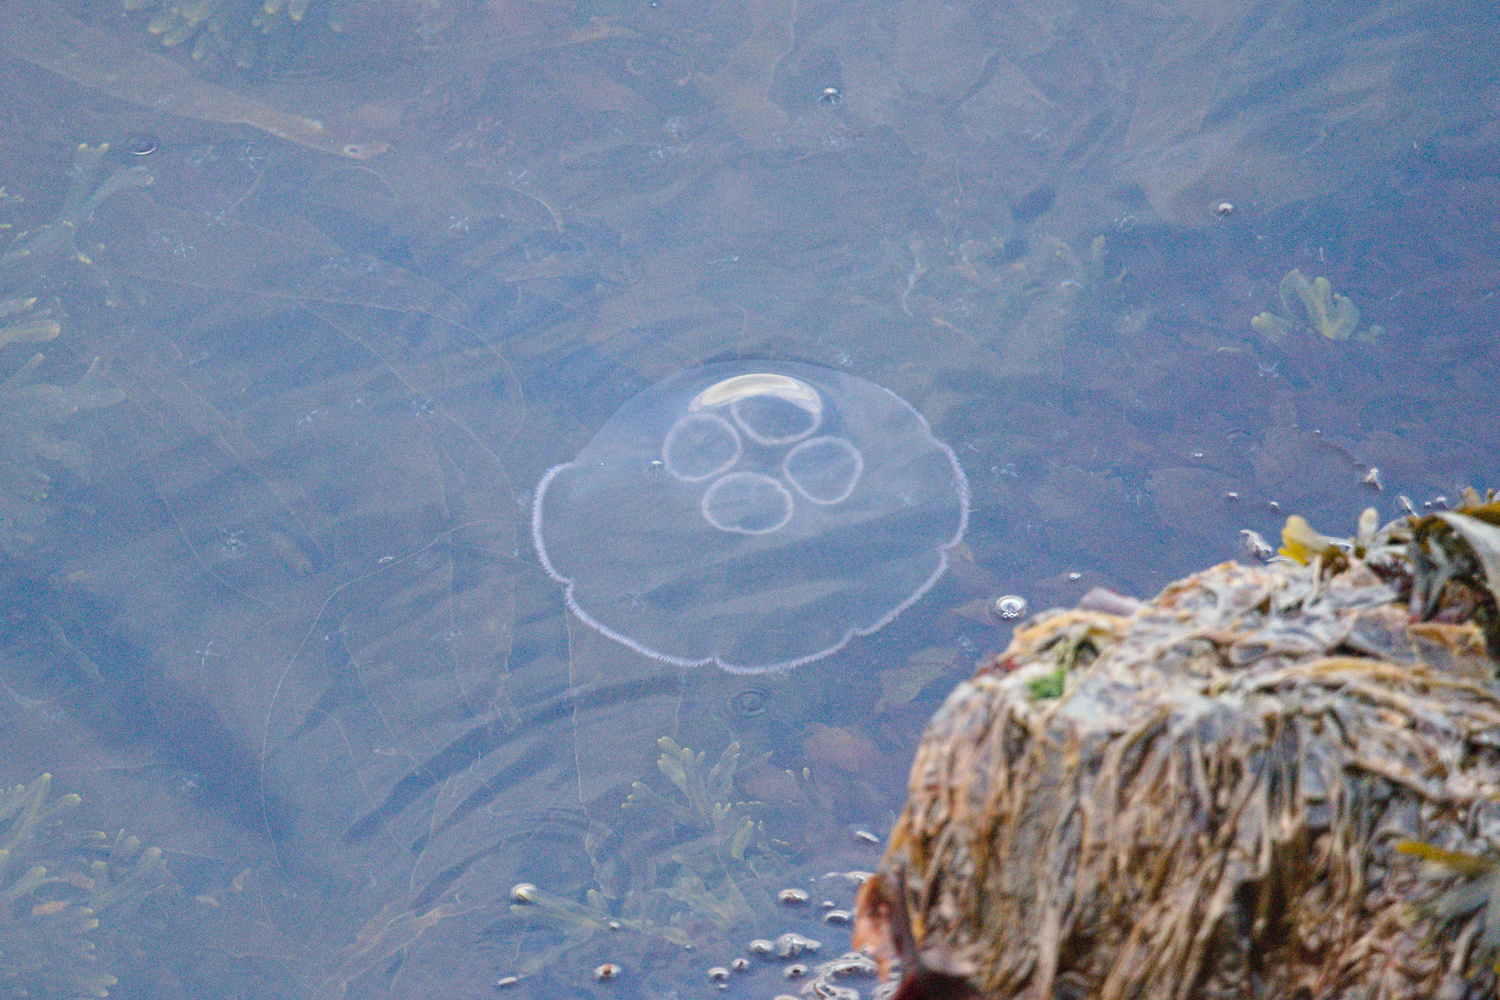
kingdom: Animalia
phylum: Cnidaria
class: Scyphozoa
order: Semaeostomeae
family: Ulmaridae
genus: Aurelia
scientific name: Aurelia aurita
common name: Moon jellyfish
